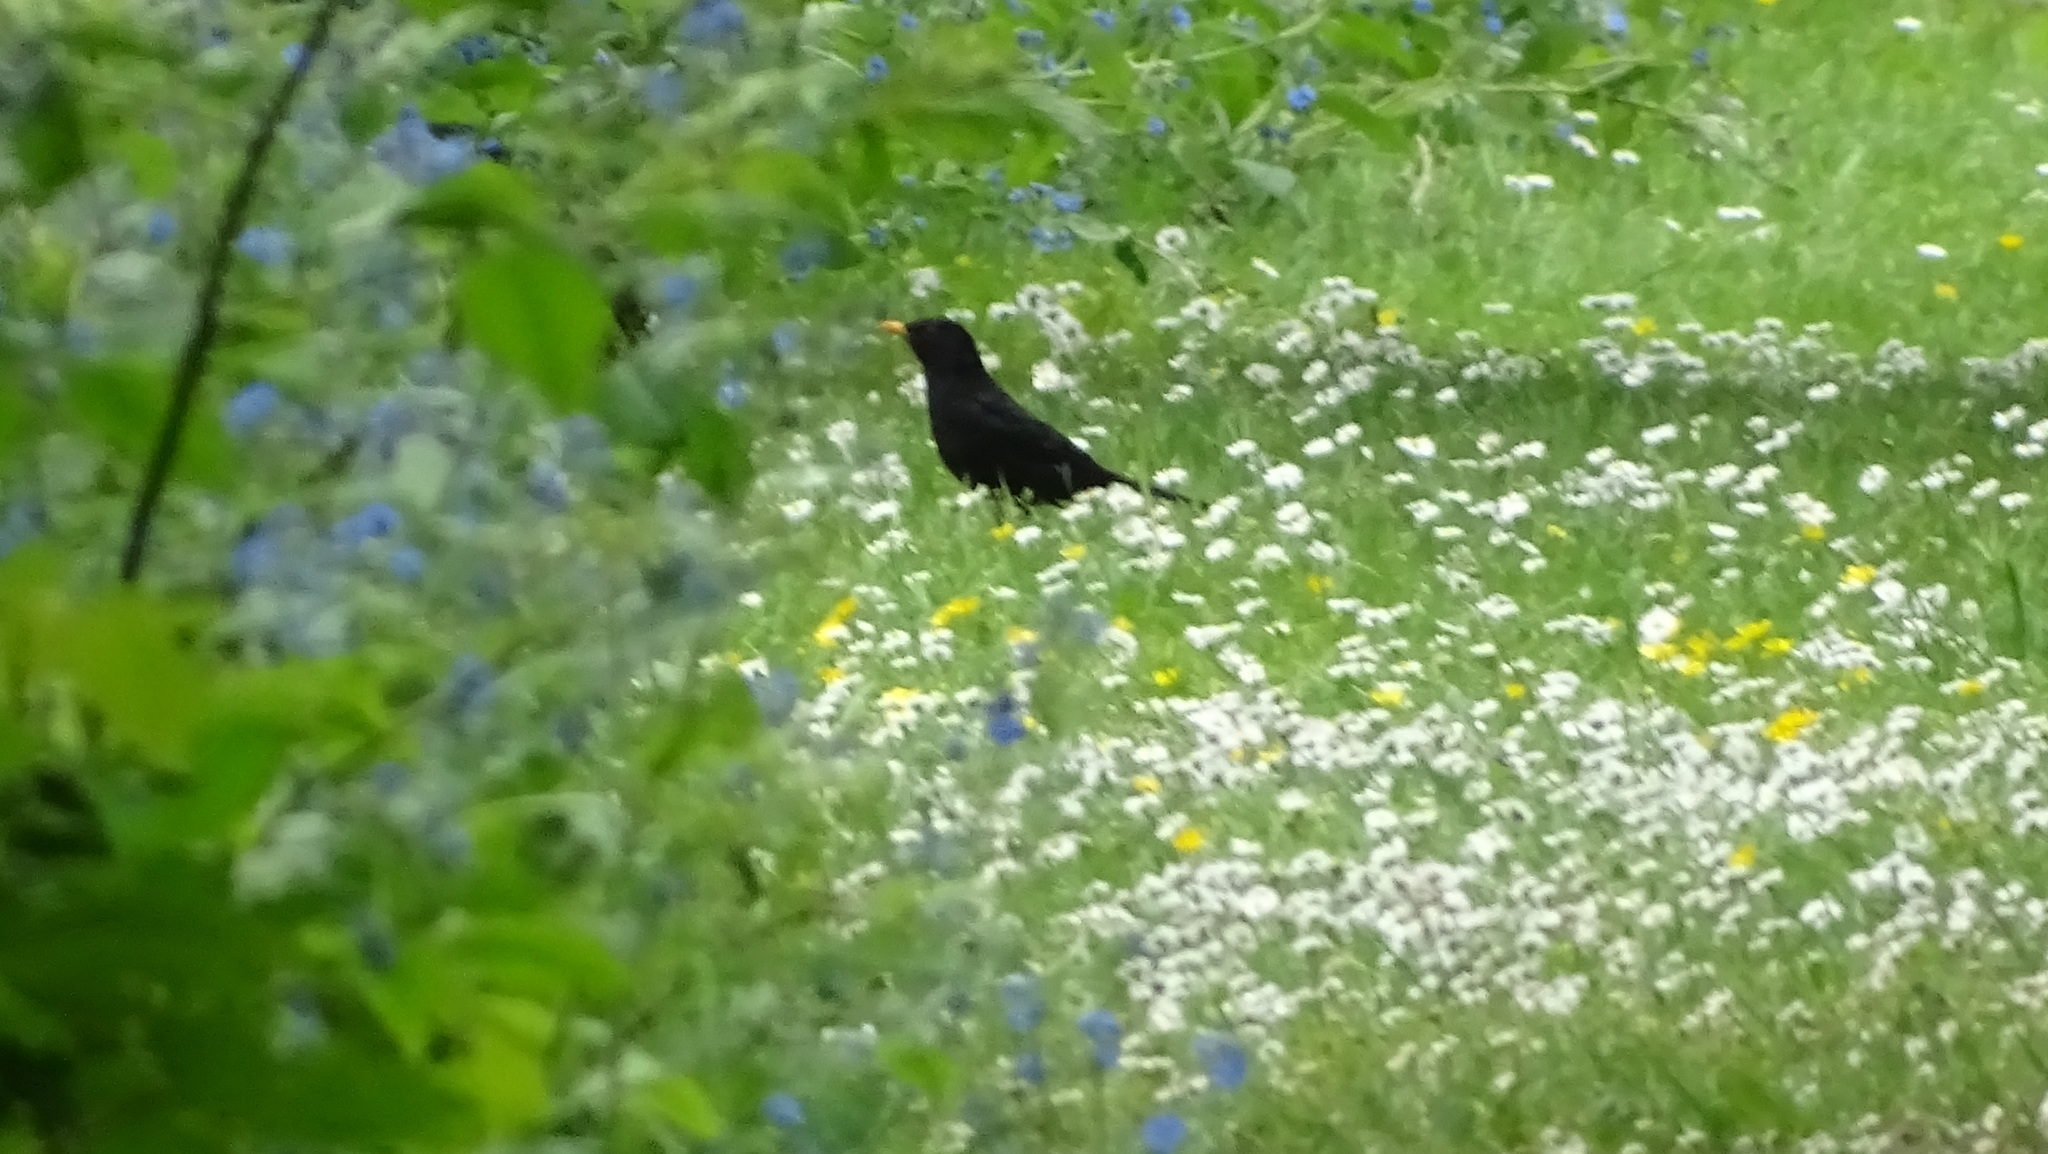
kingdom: Animalia
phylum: Chordata
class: Aves
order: Passeriformes
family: Turdidae
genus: Turdus
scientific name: Turdus merula
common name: Common blackbird
